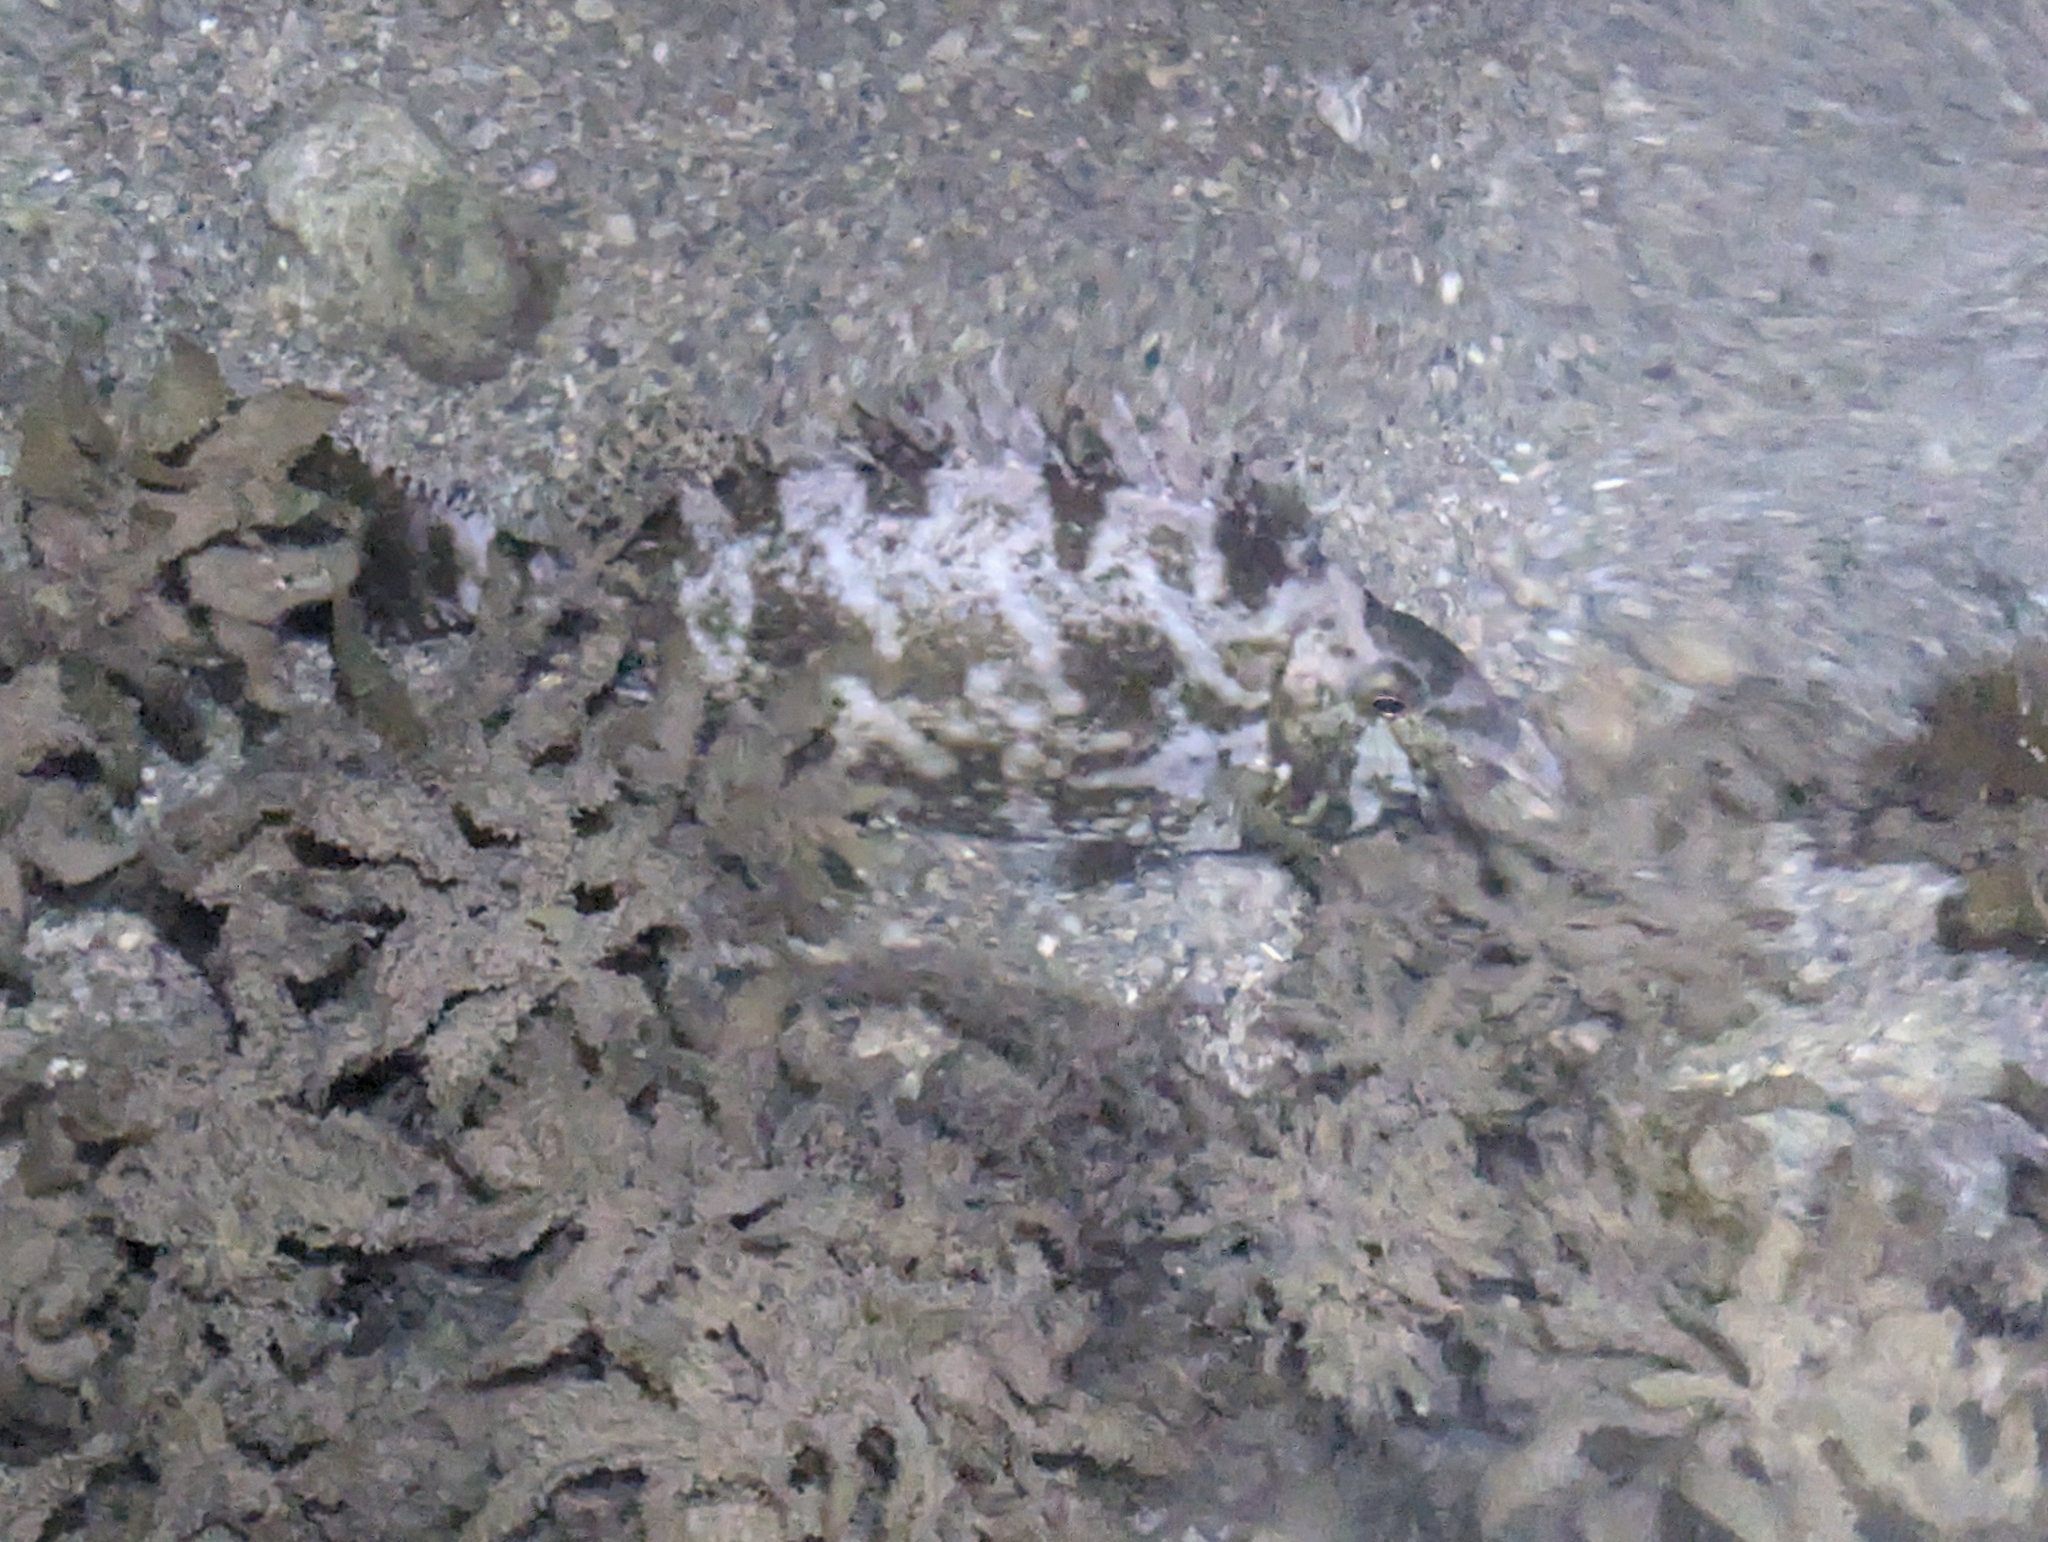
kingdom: Animalia
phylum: Chordata
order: Perciformes
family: Siganidae
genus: Siganus
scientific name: Siganus fuscescens
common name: Dusky rabbitfish
